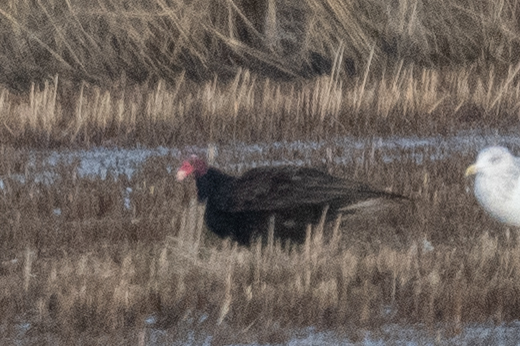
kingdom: Animalia
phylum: Chordata
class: Aves
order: Accipitriformes
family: Cathartidae
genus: Cathartes
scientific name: Cathartes aura
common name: Turkey vulture
